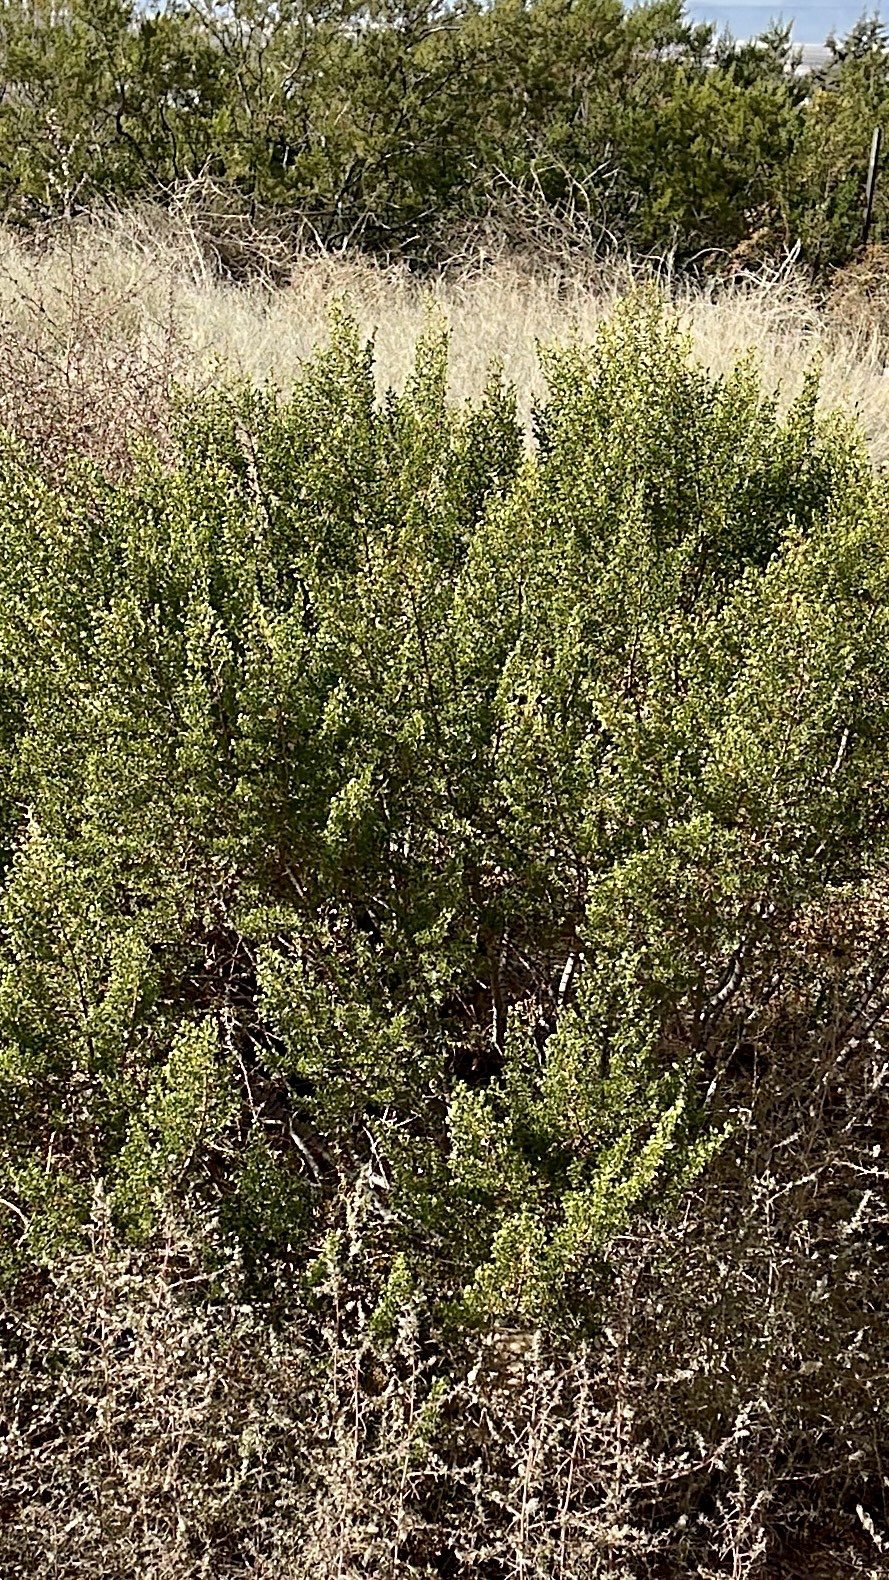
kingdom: Plantae
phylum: Tracheophyta
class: Magnoliopsida
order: Zygophyllales
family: Zygophyllaceae
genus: Larrea
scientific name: Larrea tridentata
